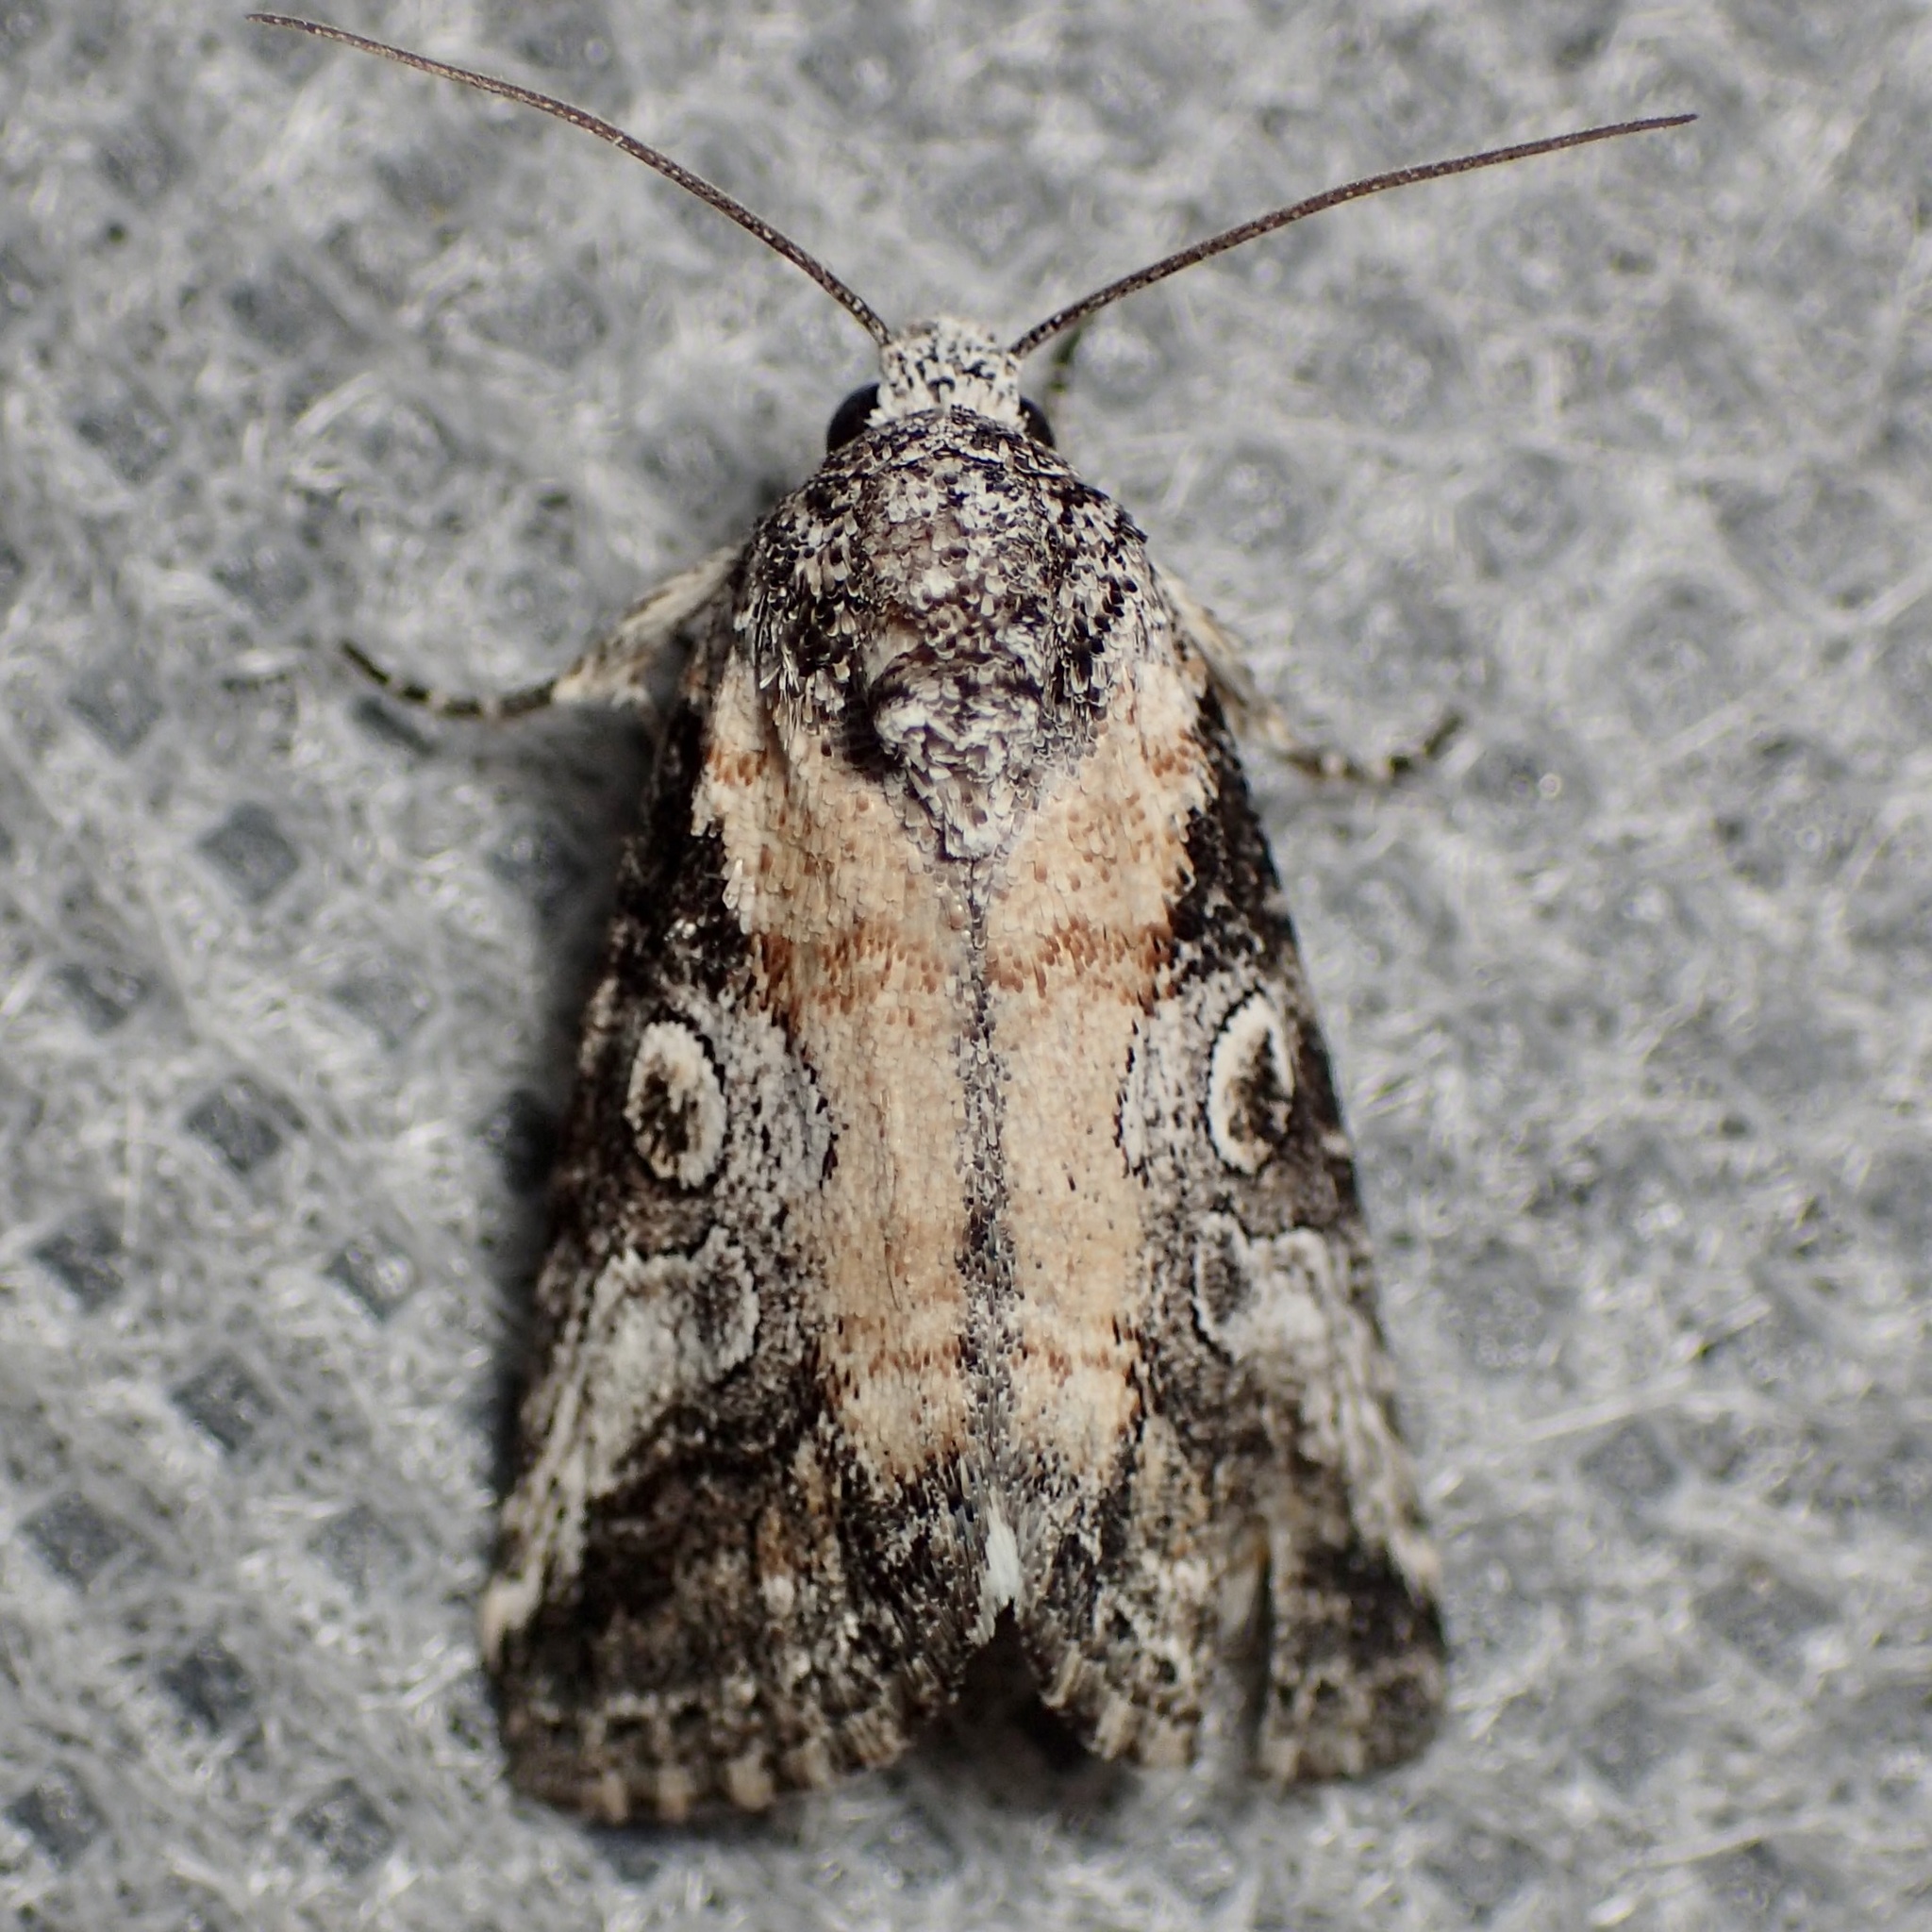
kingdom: Animalia
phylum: Arthropoda
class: Insecta
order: Lepidoptera
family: Noctuidae
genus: Aleptina
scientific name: Aleptina inca
